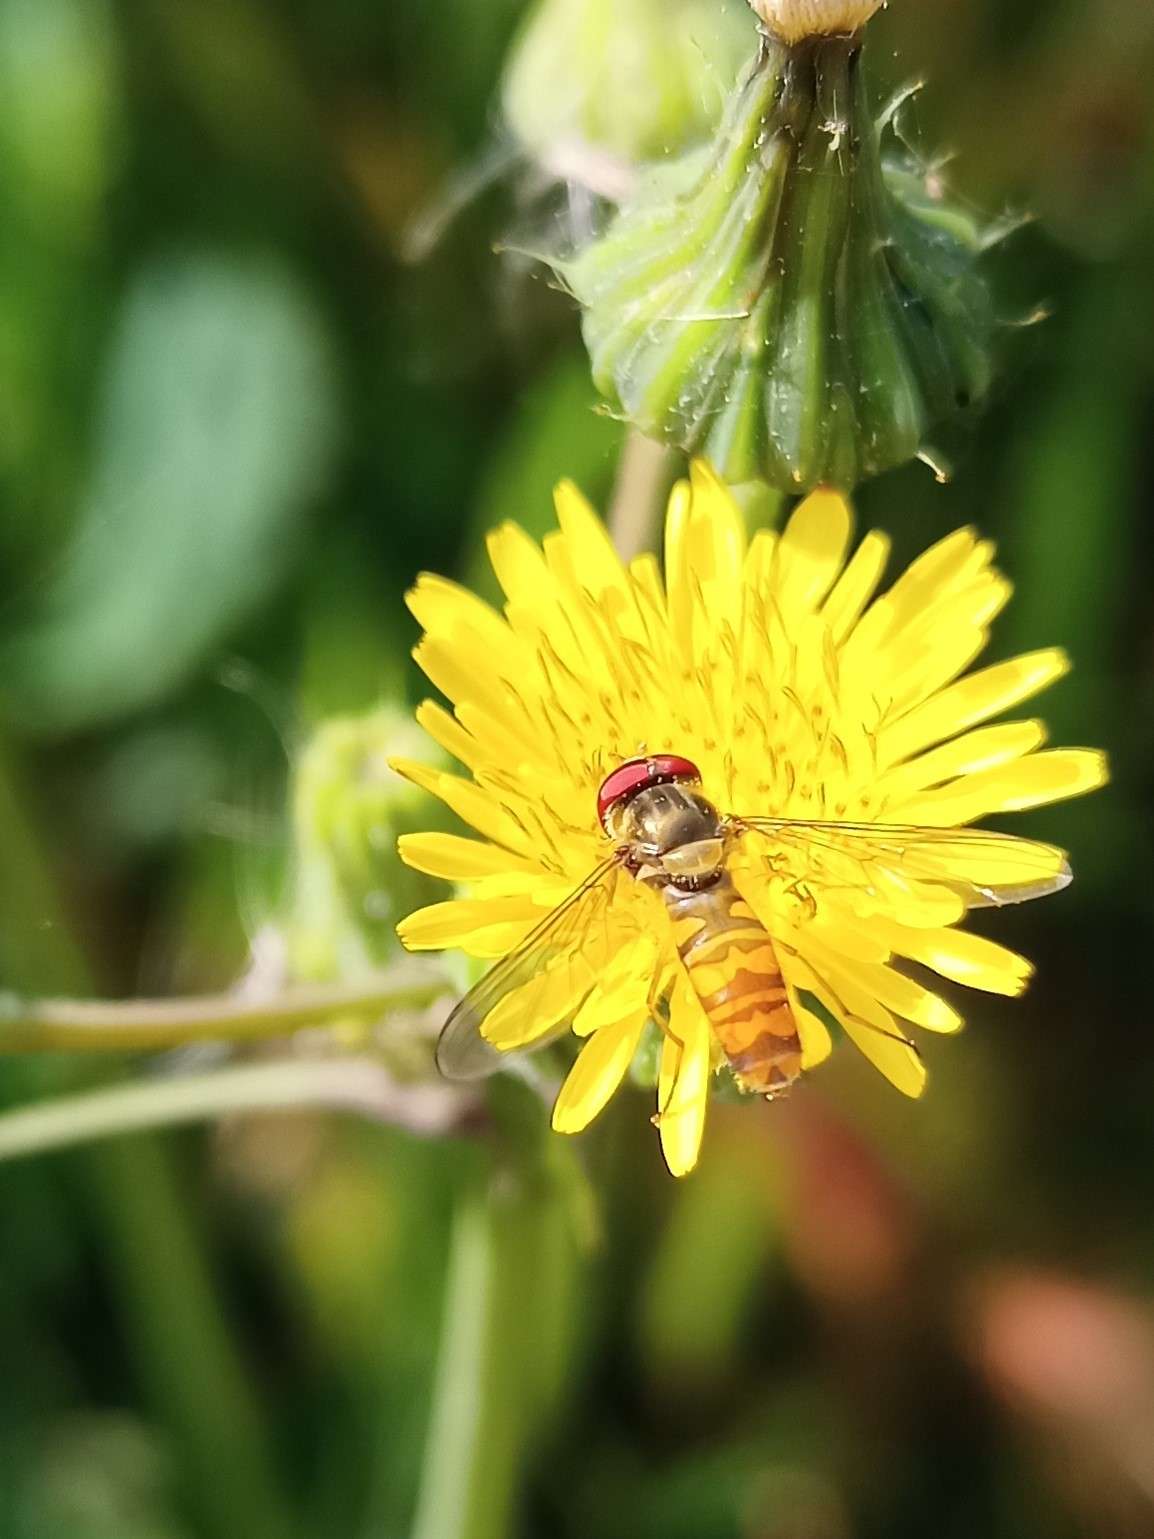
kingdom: Animalia
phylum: Arthropoda
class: Insecta
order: Diptera
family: Syrphidae
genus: Episyrphus
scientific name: Episyrphus balteatus
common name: Marmalade hoverfly
